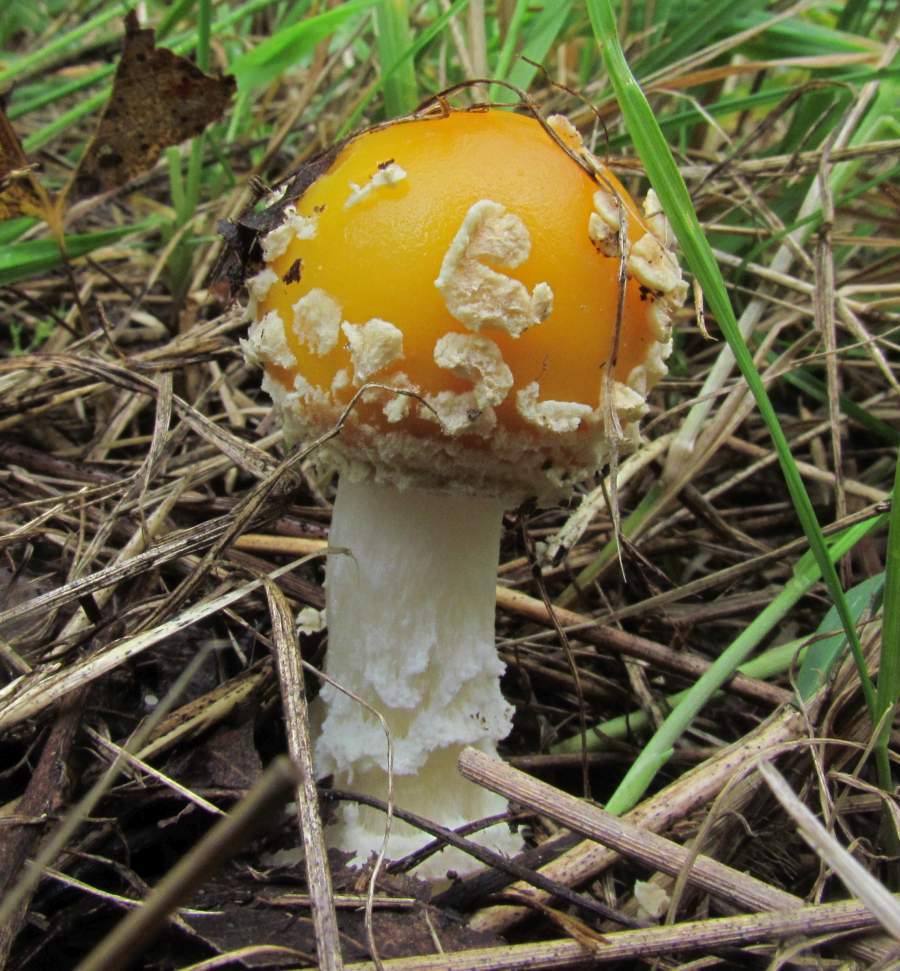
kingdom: Fungi
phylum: Basidiomycota
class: Agaricomycetes
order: Agaricales
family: Amanitaceae
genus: Amanita
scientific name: Amanita muscaria
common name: Fly agaric
